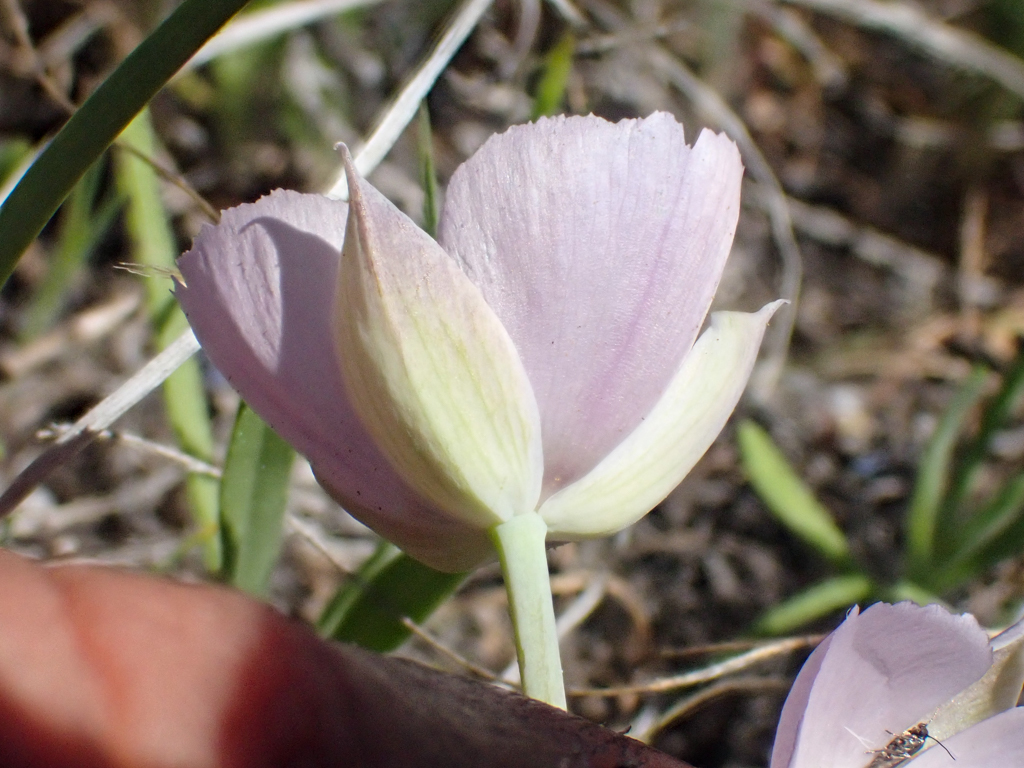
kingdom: Plantae
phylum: Tracheophyta
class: Liliopsida
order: Liliales
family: Liliaceae
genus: Calochortus
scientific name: Calochortus uniflorus
